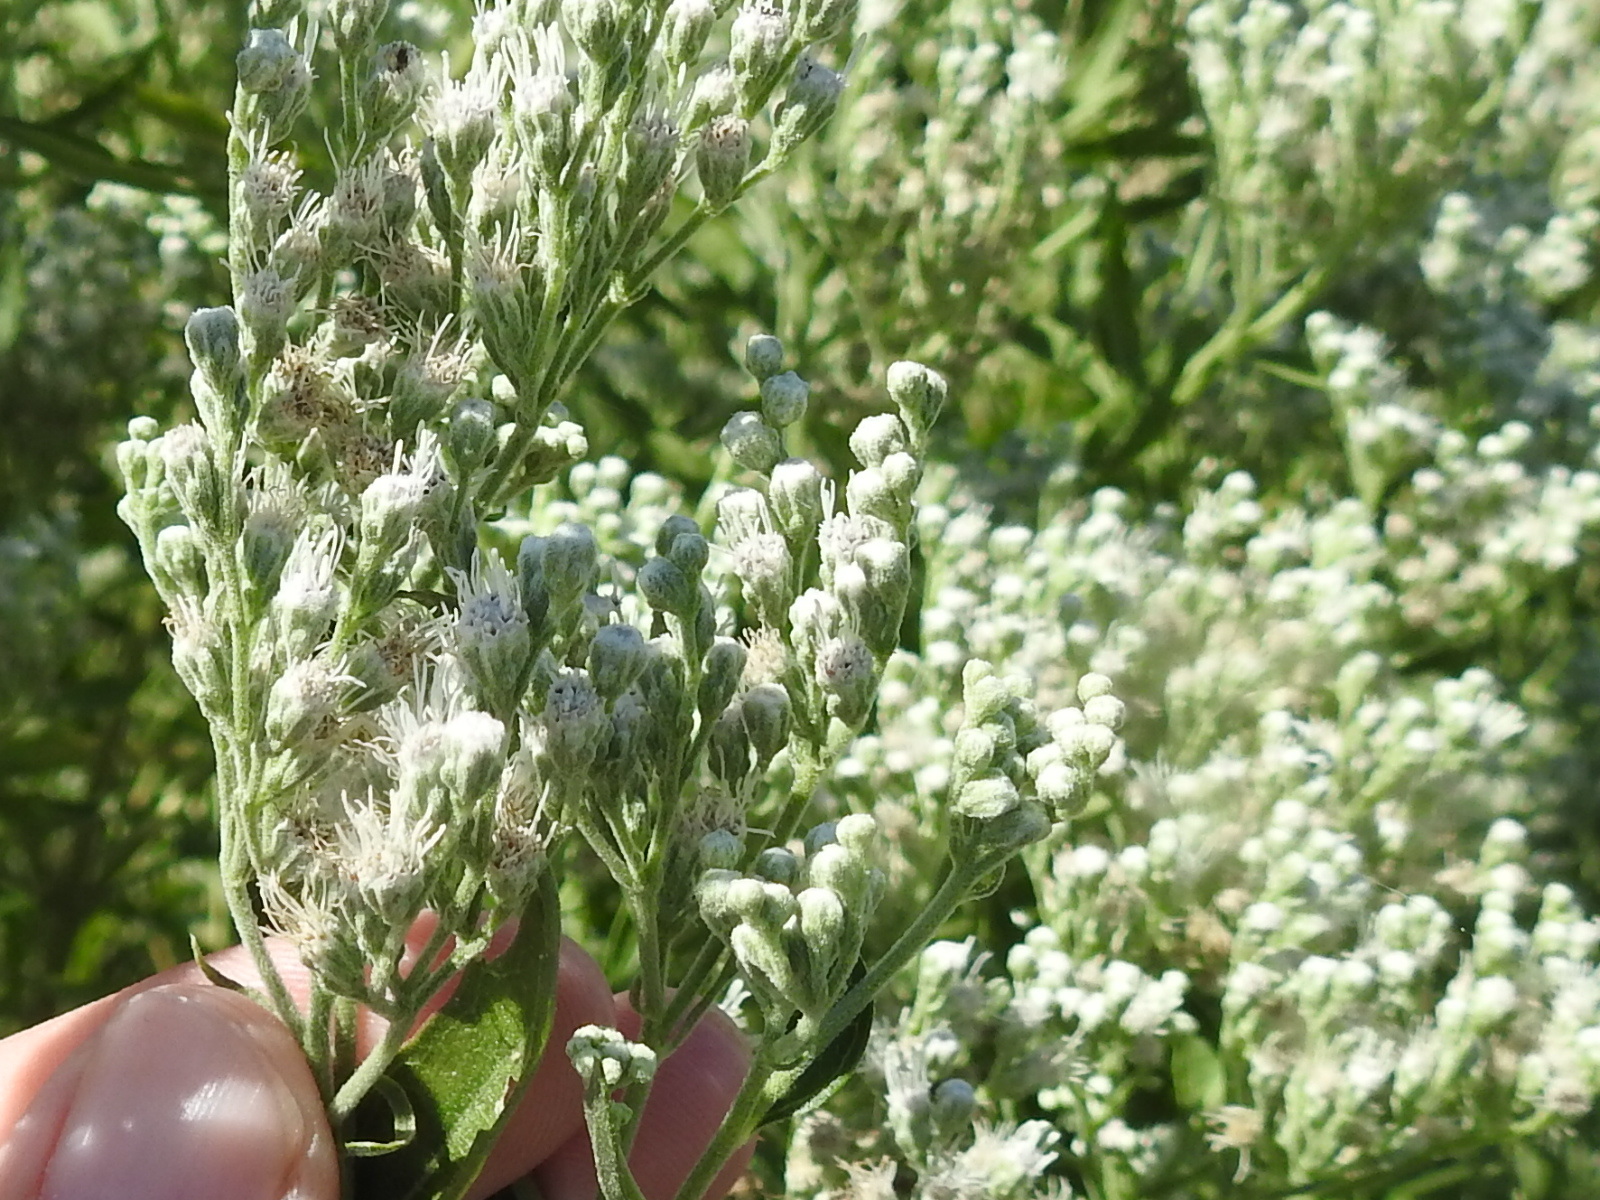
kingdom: Plantae
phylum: Tracheophyta
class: Magnoliopsida
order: Asterales
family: Asteraceae
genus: Eupatorium
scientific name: Eupatorium serotinum
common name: Late boneset
